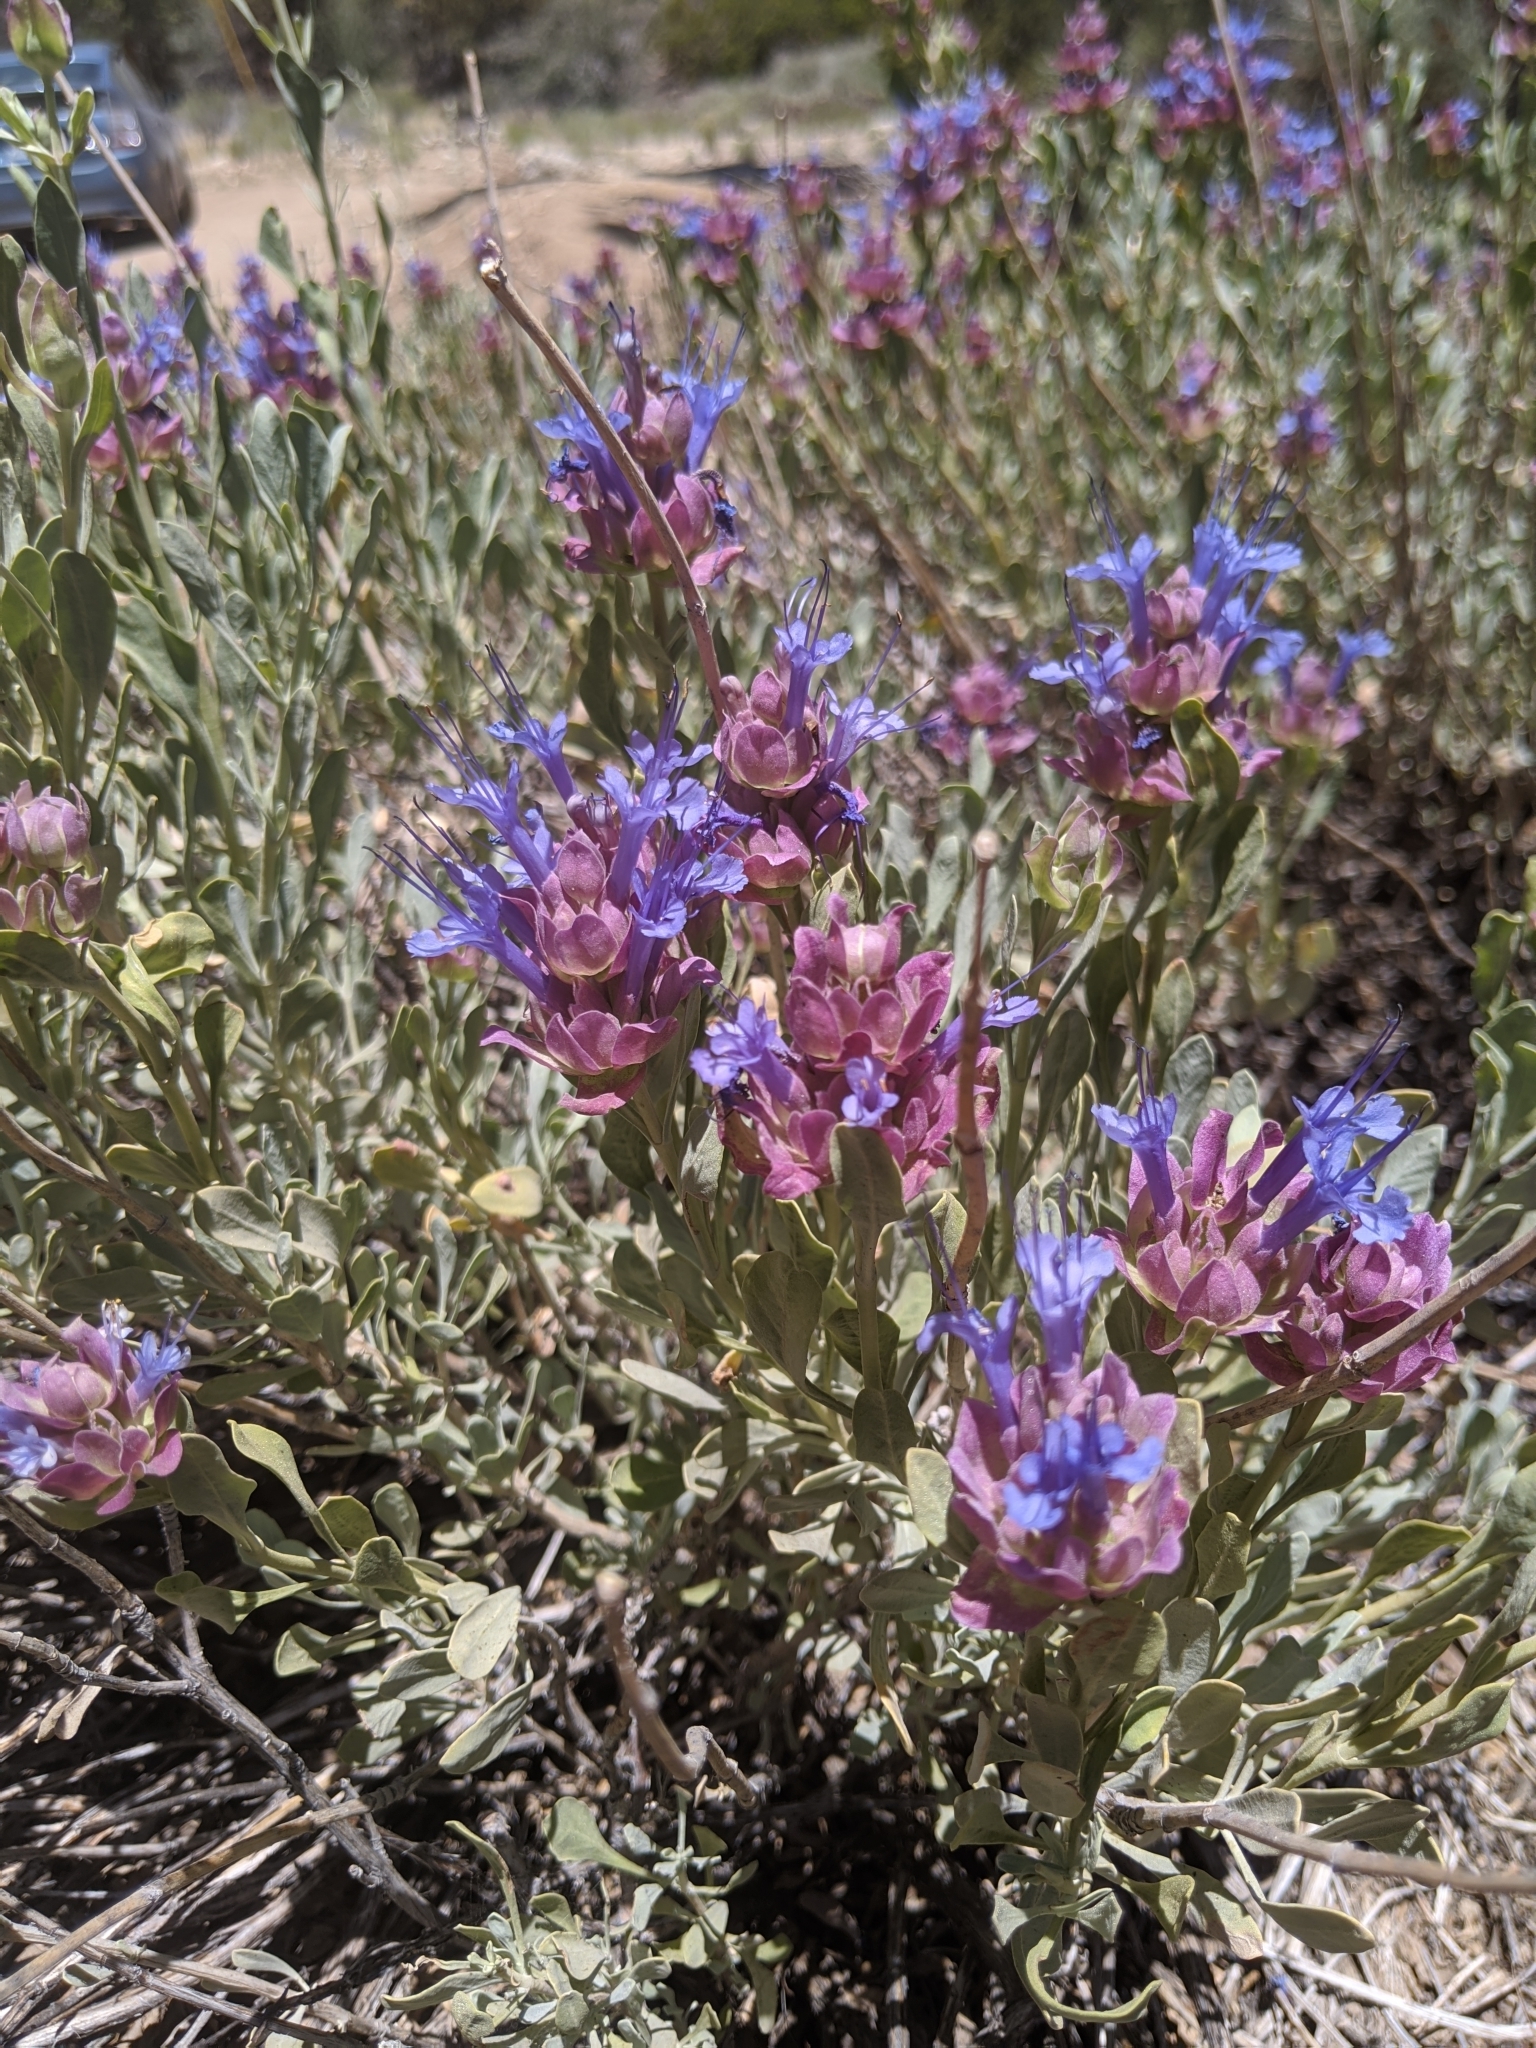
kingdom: Plantae
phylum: Tracheophyta
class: Magnoliopsida
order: Lamiales
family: Lamiaceae
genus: Salvia
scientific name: Salvia pachyphylla
